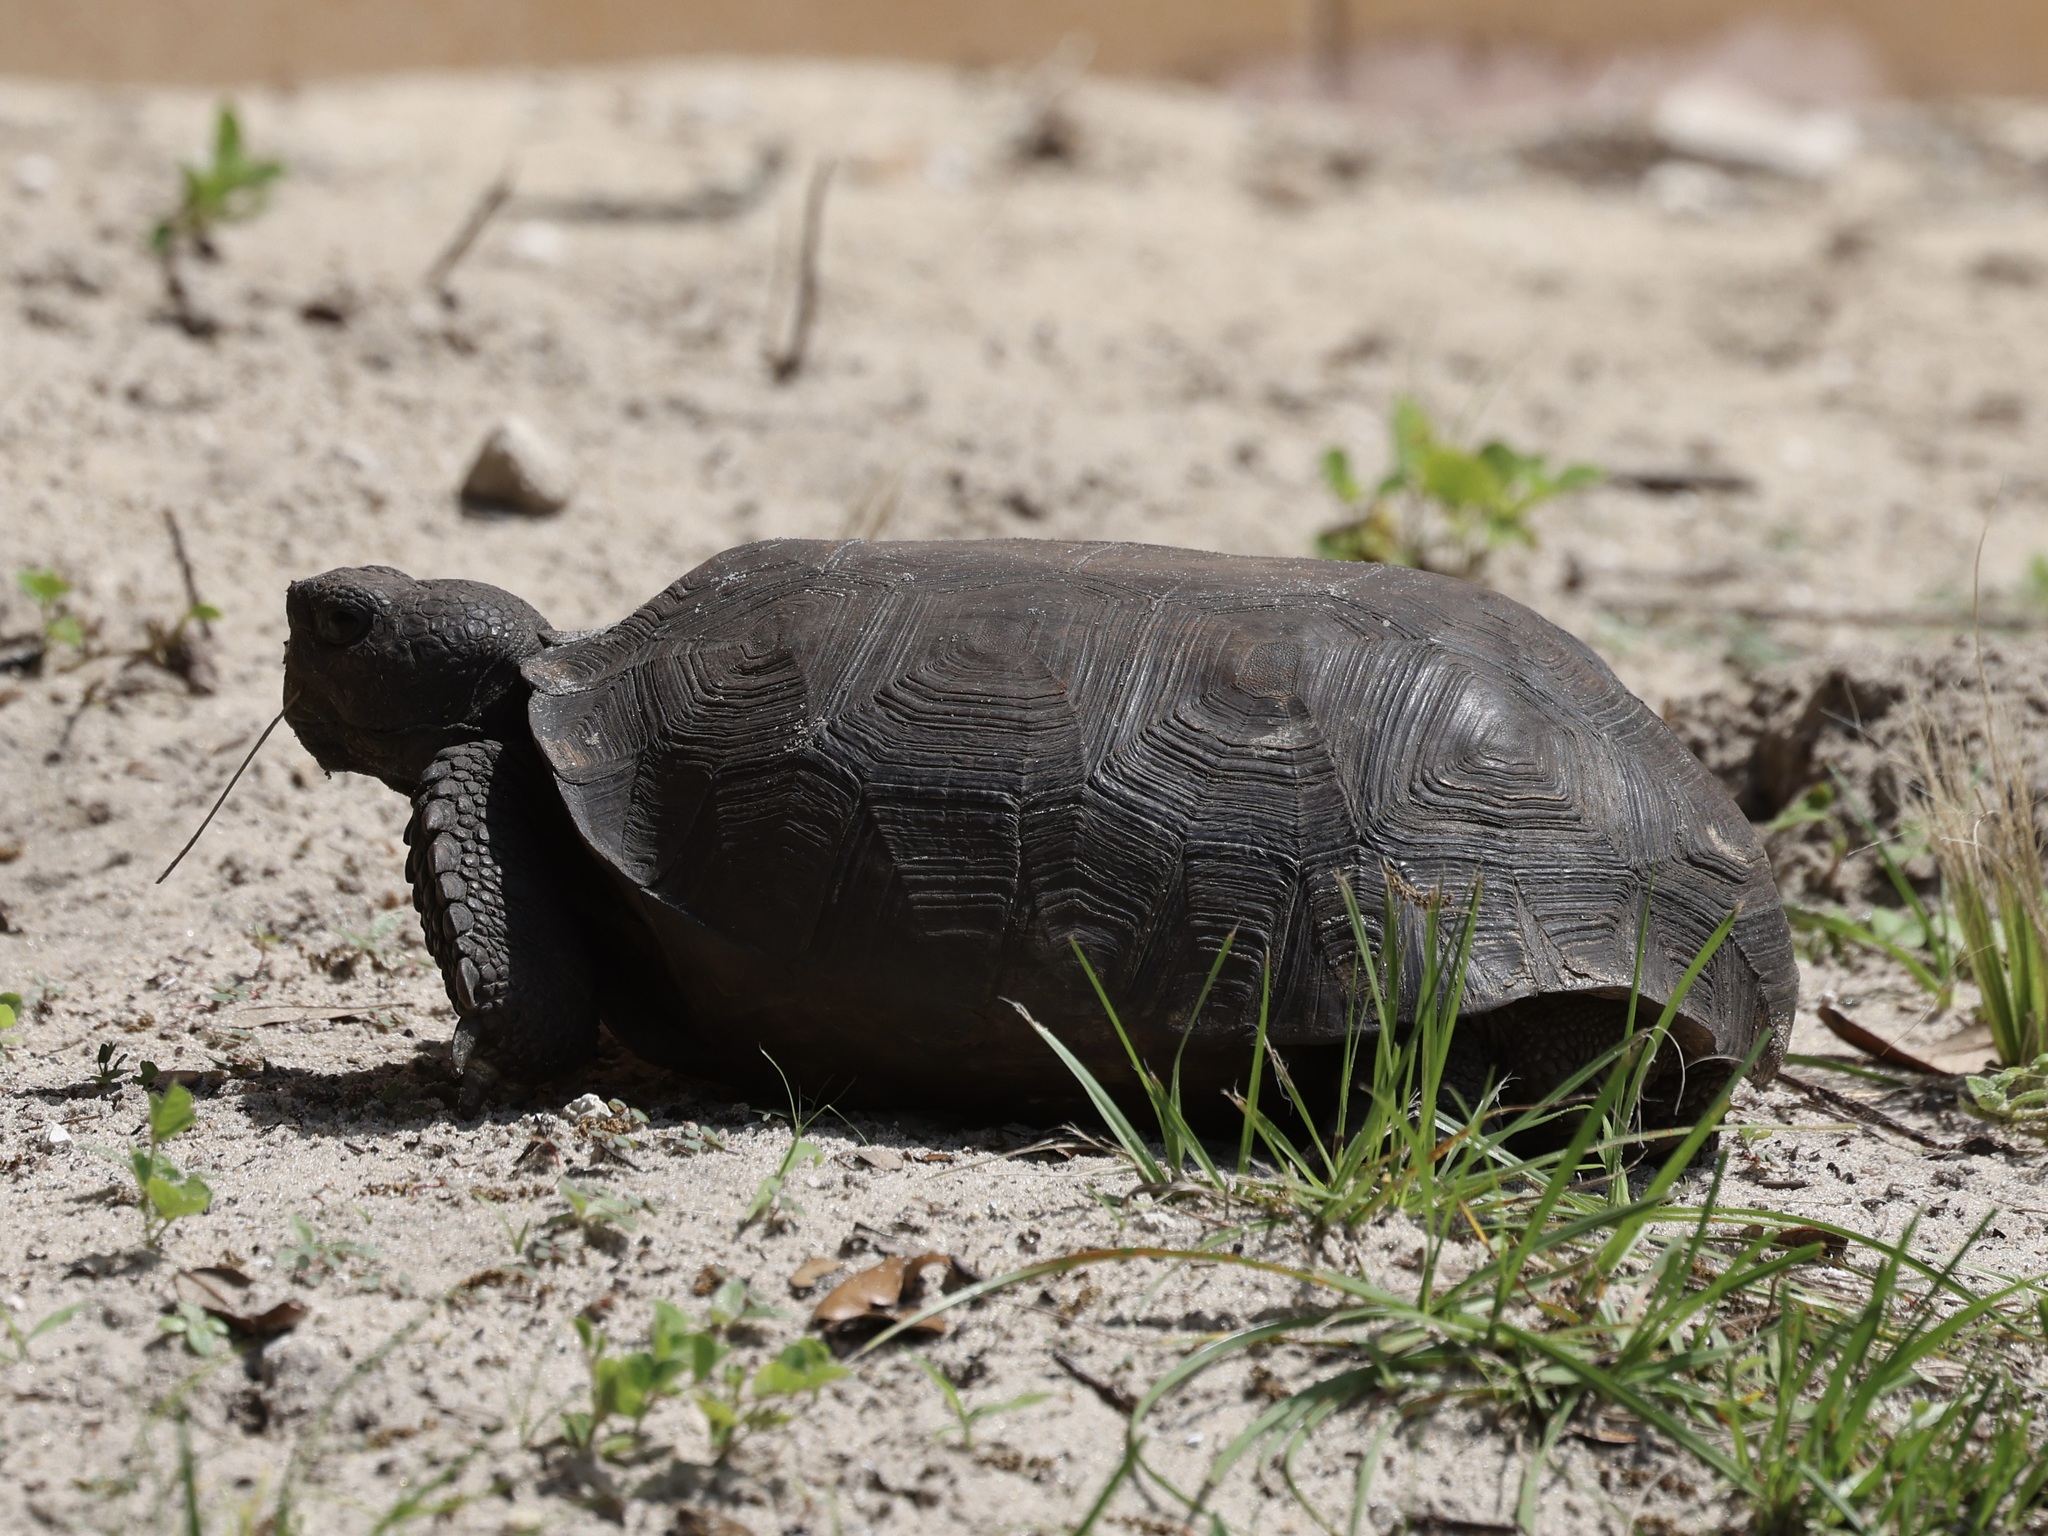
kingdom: Animalia
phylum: Chordata
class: Testudines
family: Testudinidae
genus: Gopherus
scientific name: Gopherus polyphemus
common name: Florida gopher tortoise
